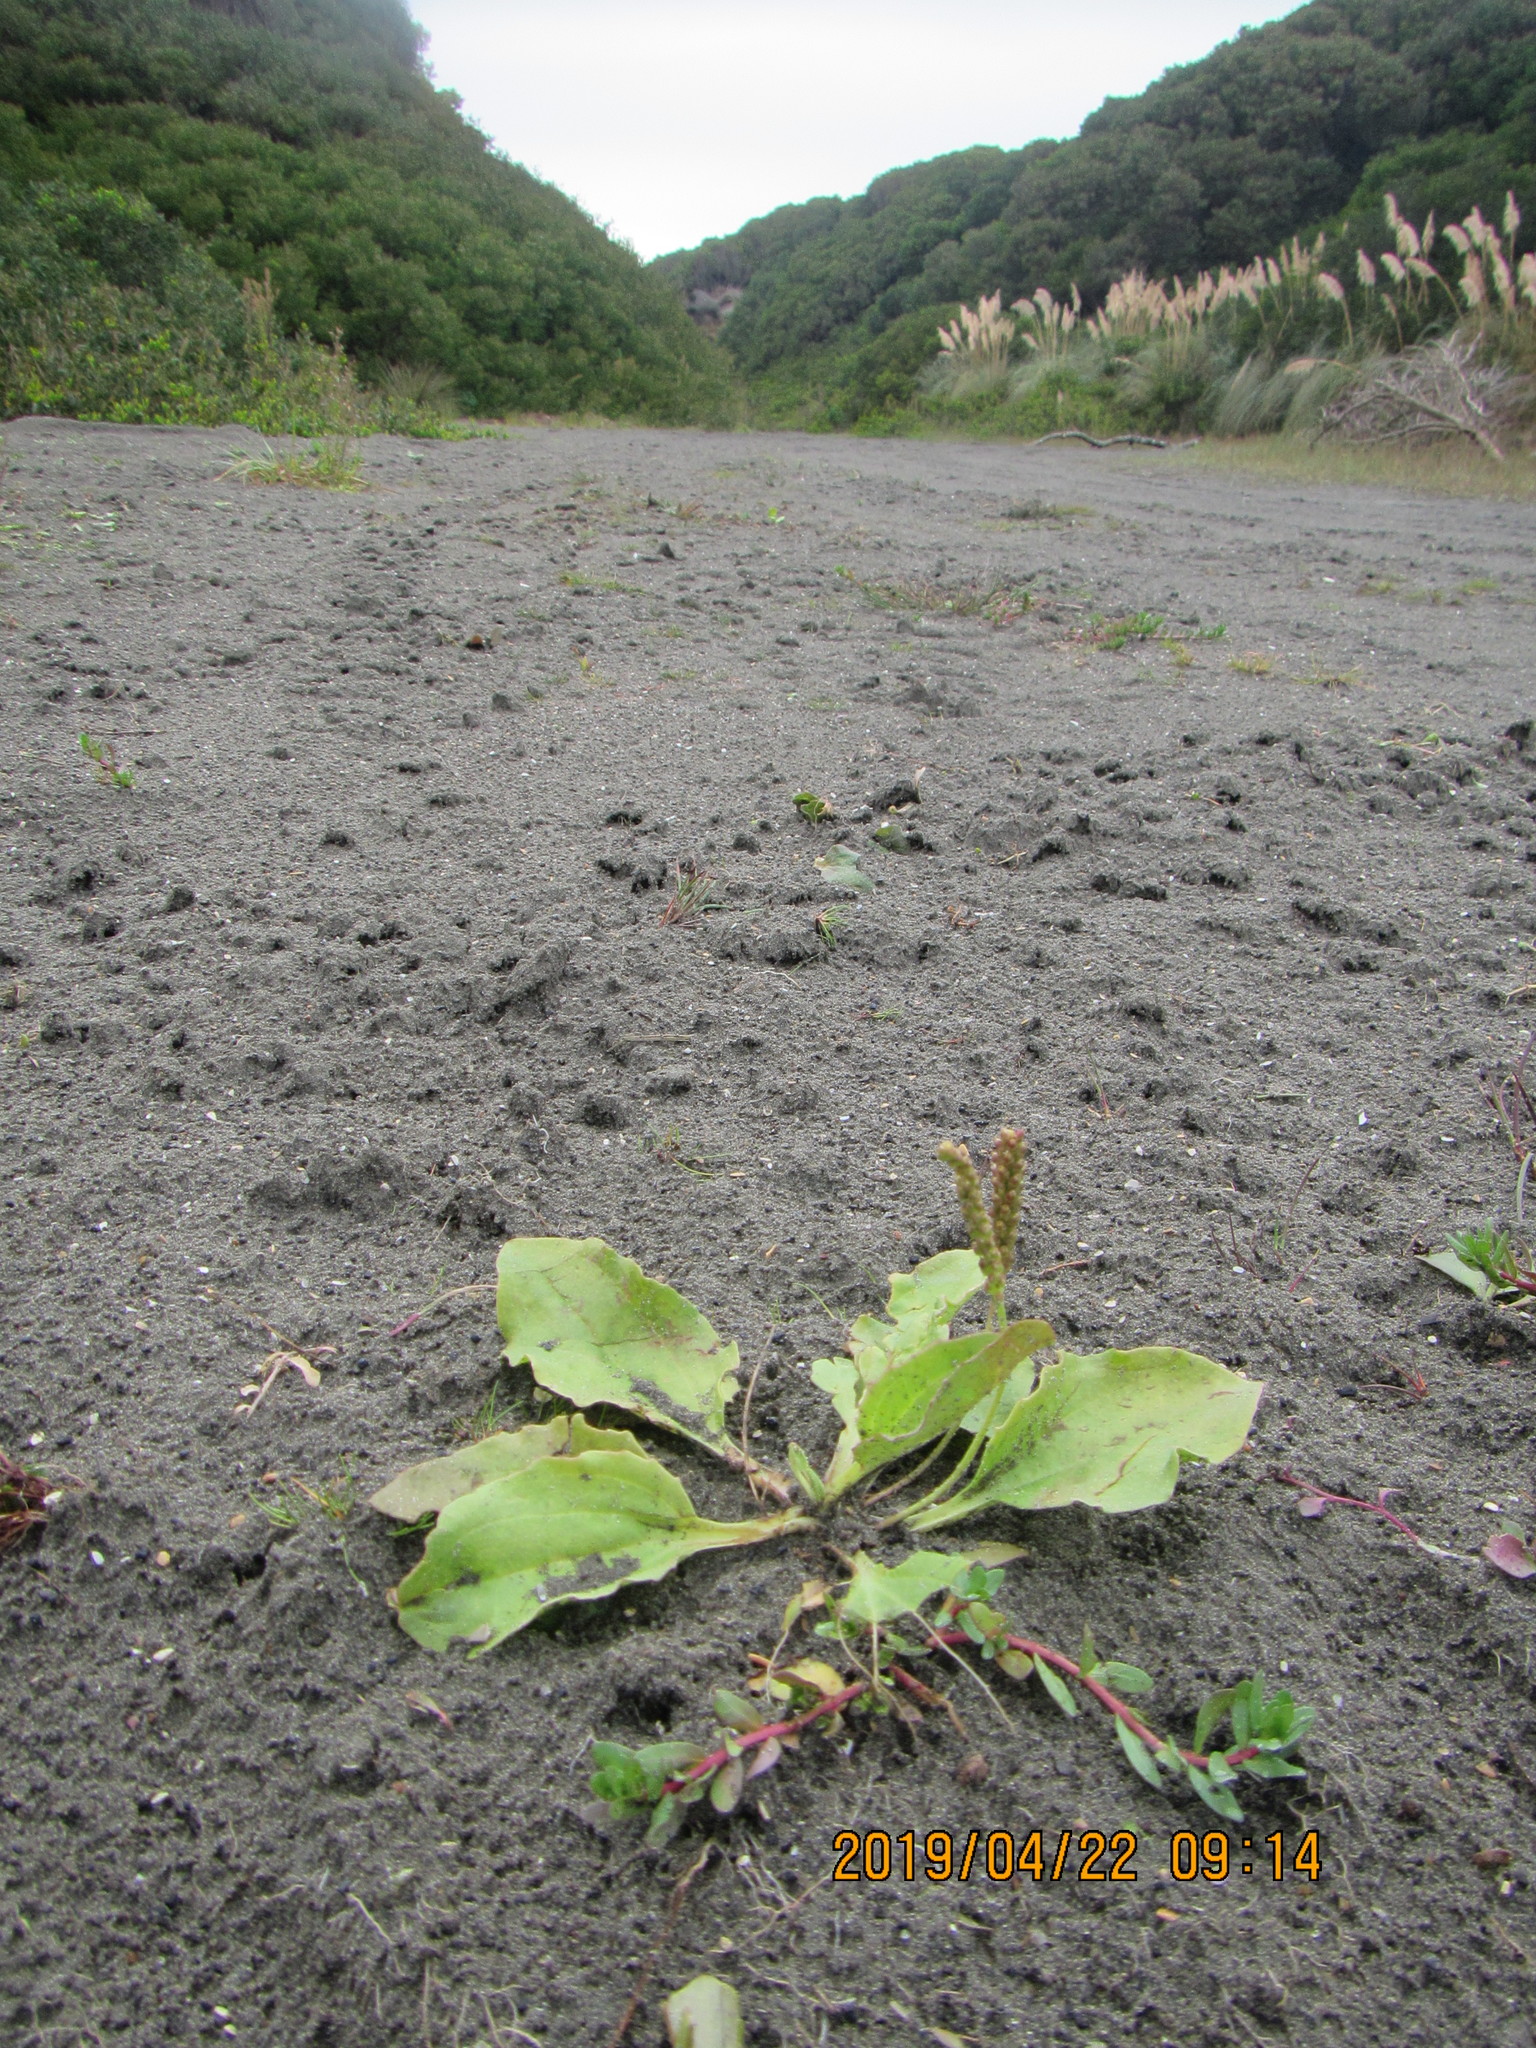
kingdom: Plantae
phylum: Tracheophyta
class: Magnoliopsida
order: Lamiales
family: Plantaginaceae
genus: Plantago
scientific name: Plantago major
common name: Common plantain
